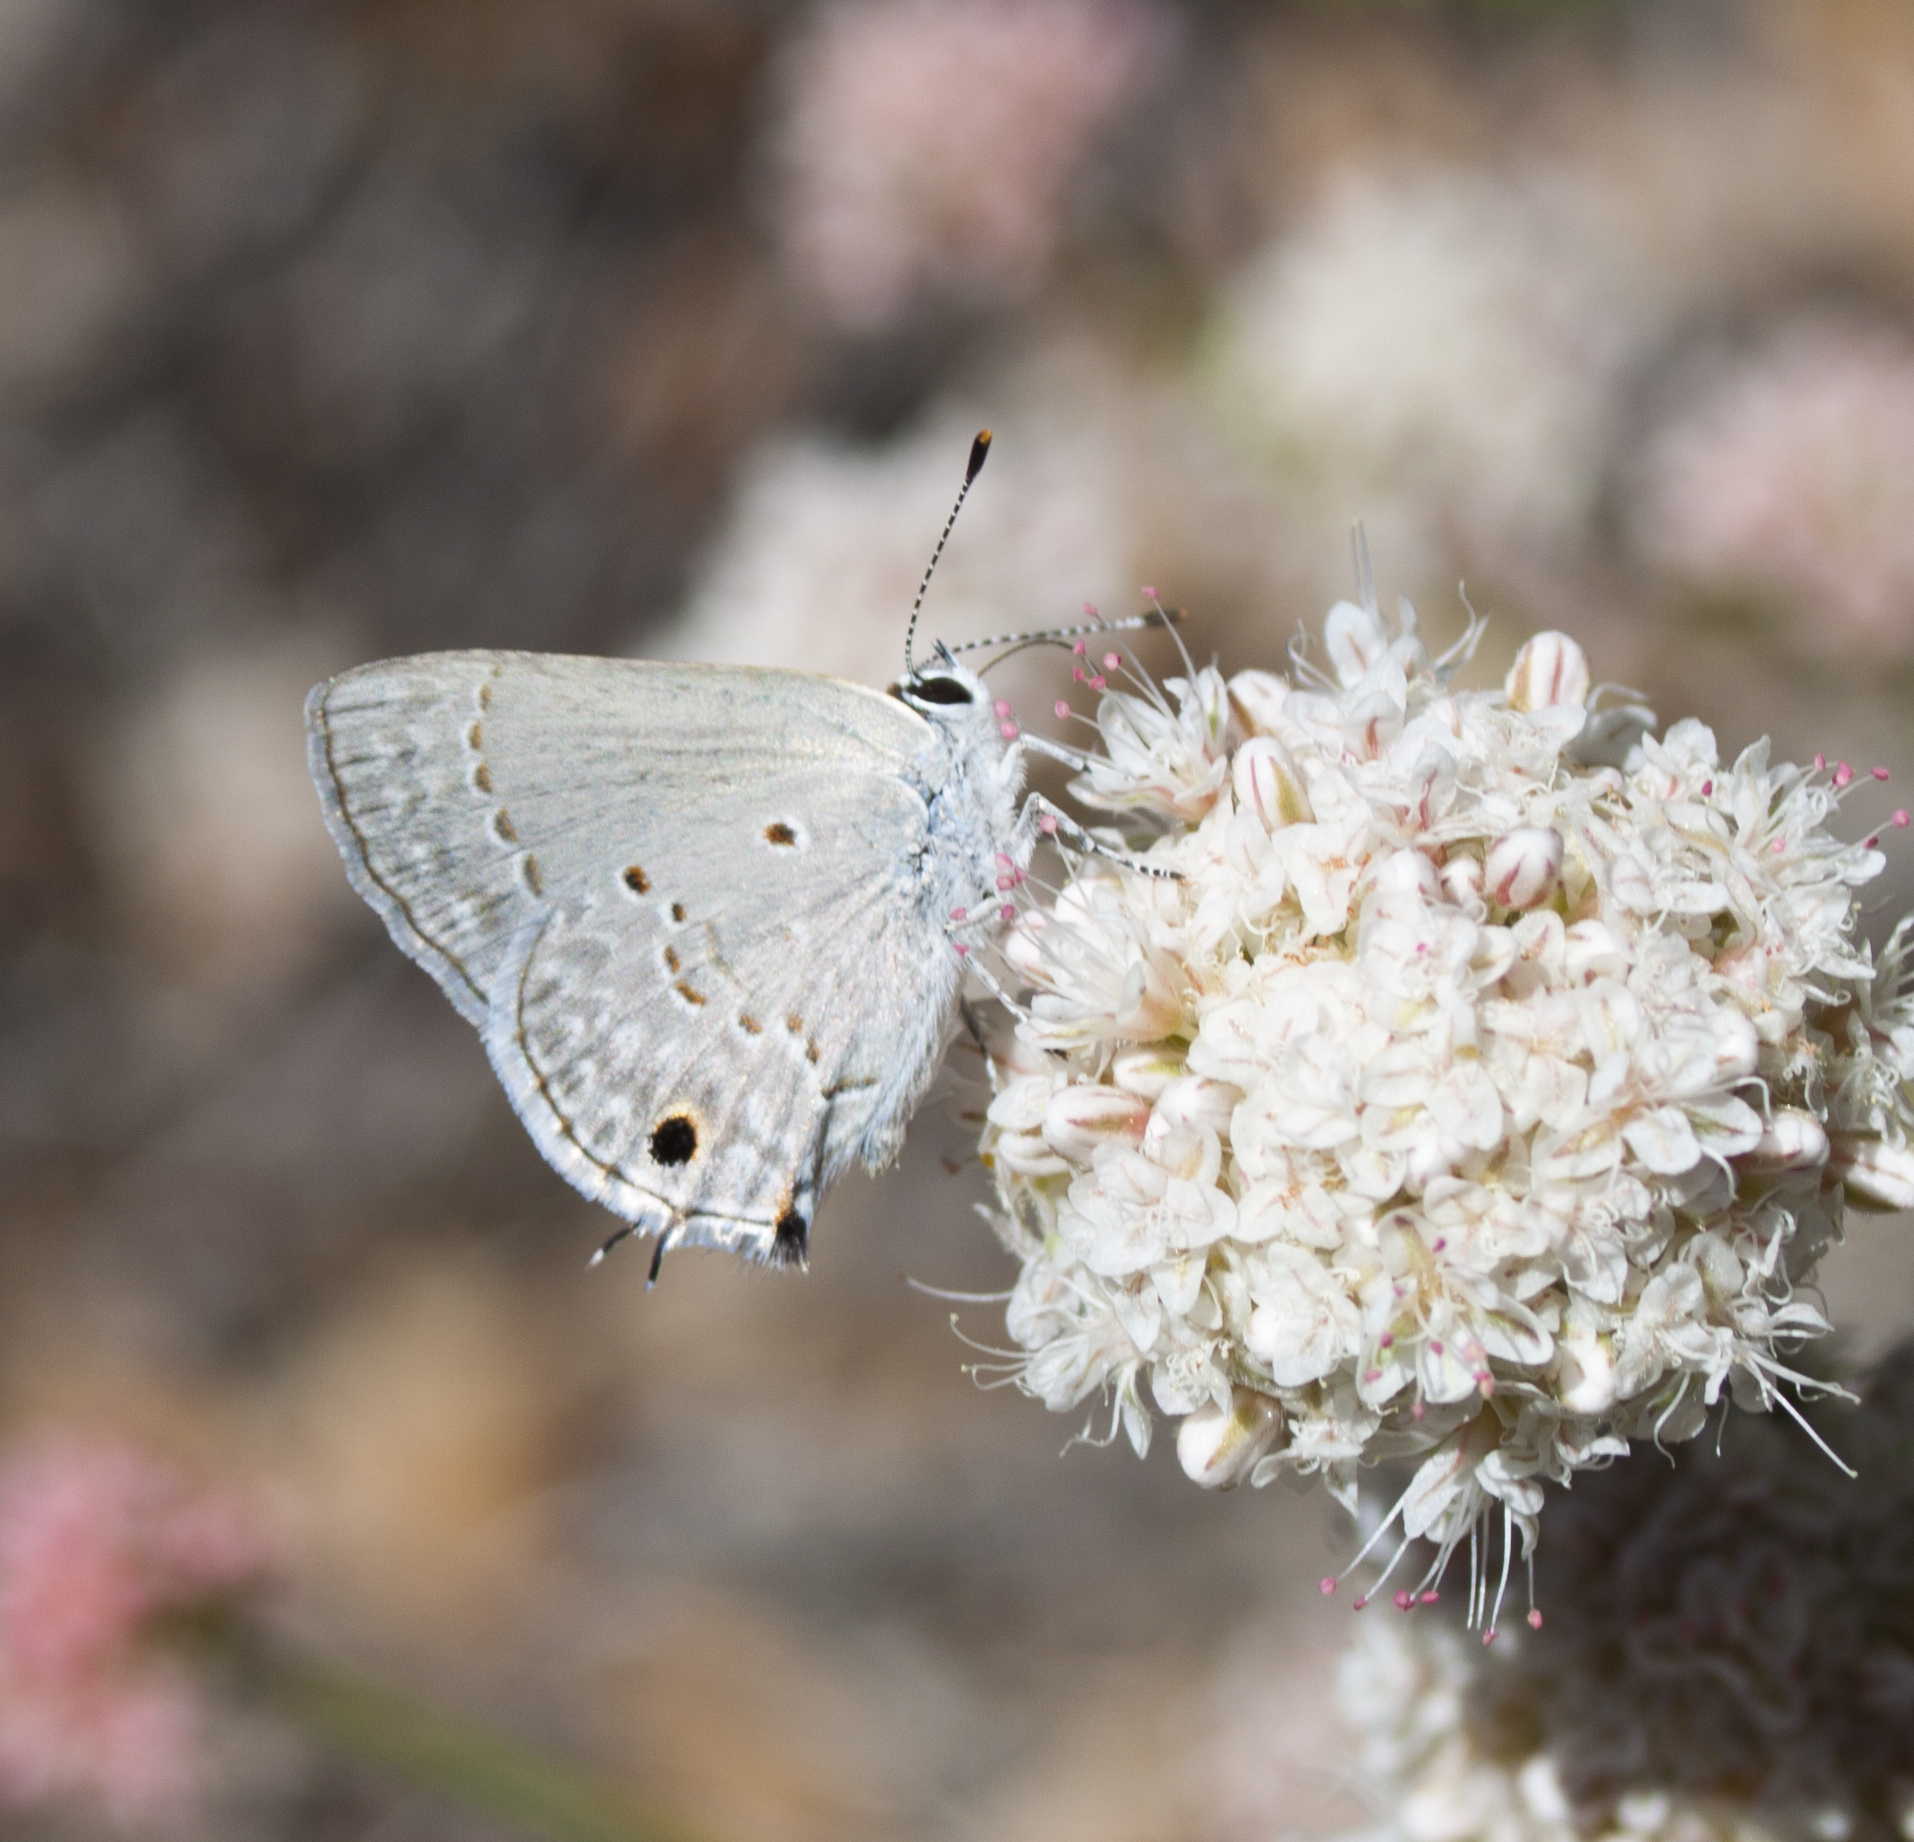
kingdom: Animalia
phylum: Arthropoda
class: Insecta
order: Lepidoptera
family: Lycaenidae
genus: Callicista
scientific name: Callicista columella
